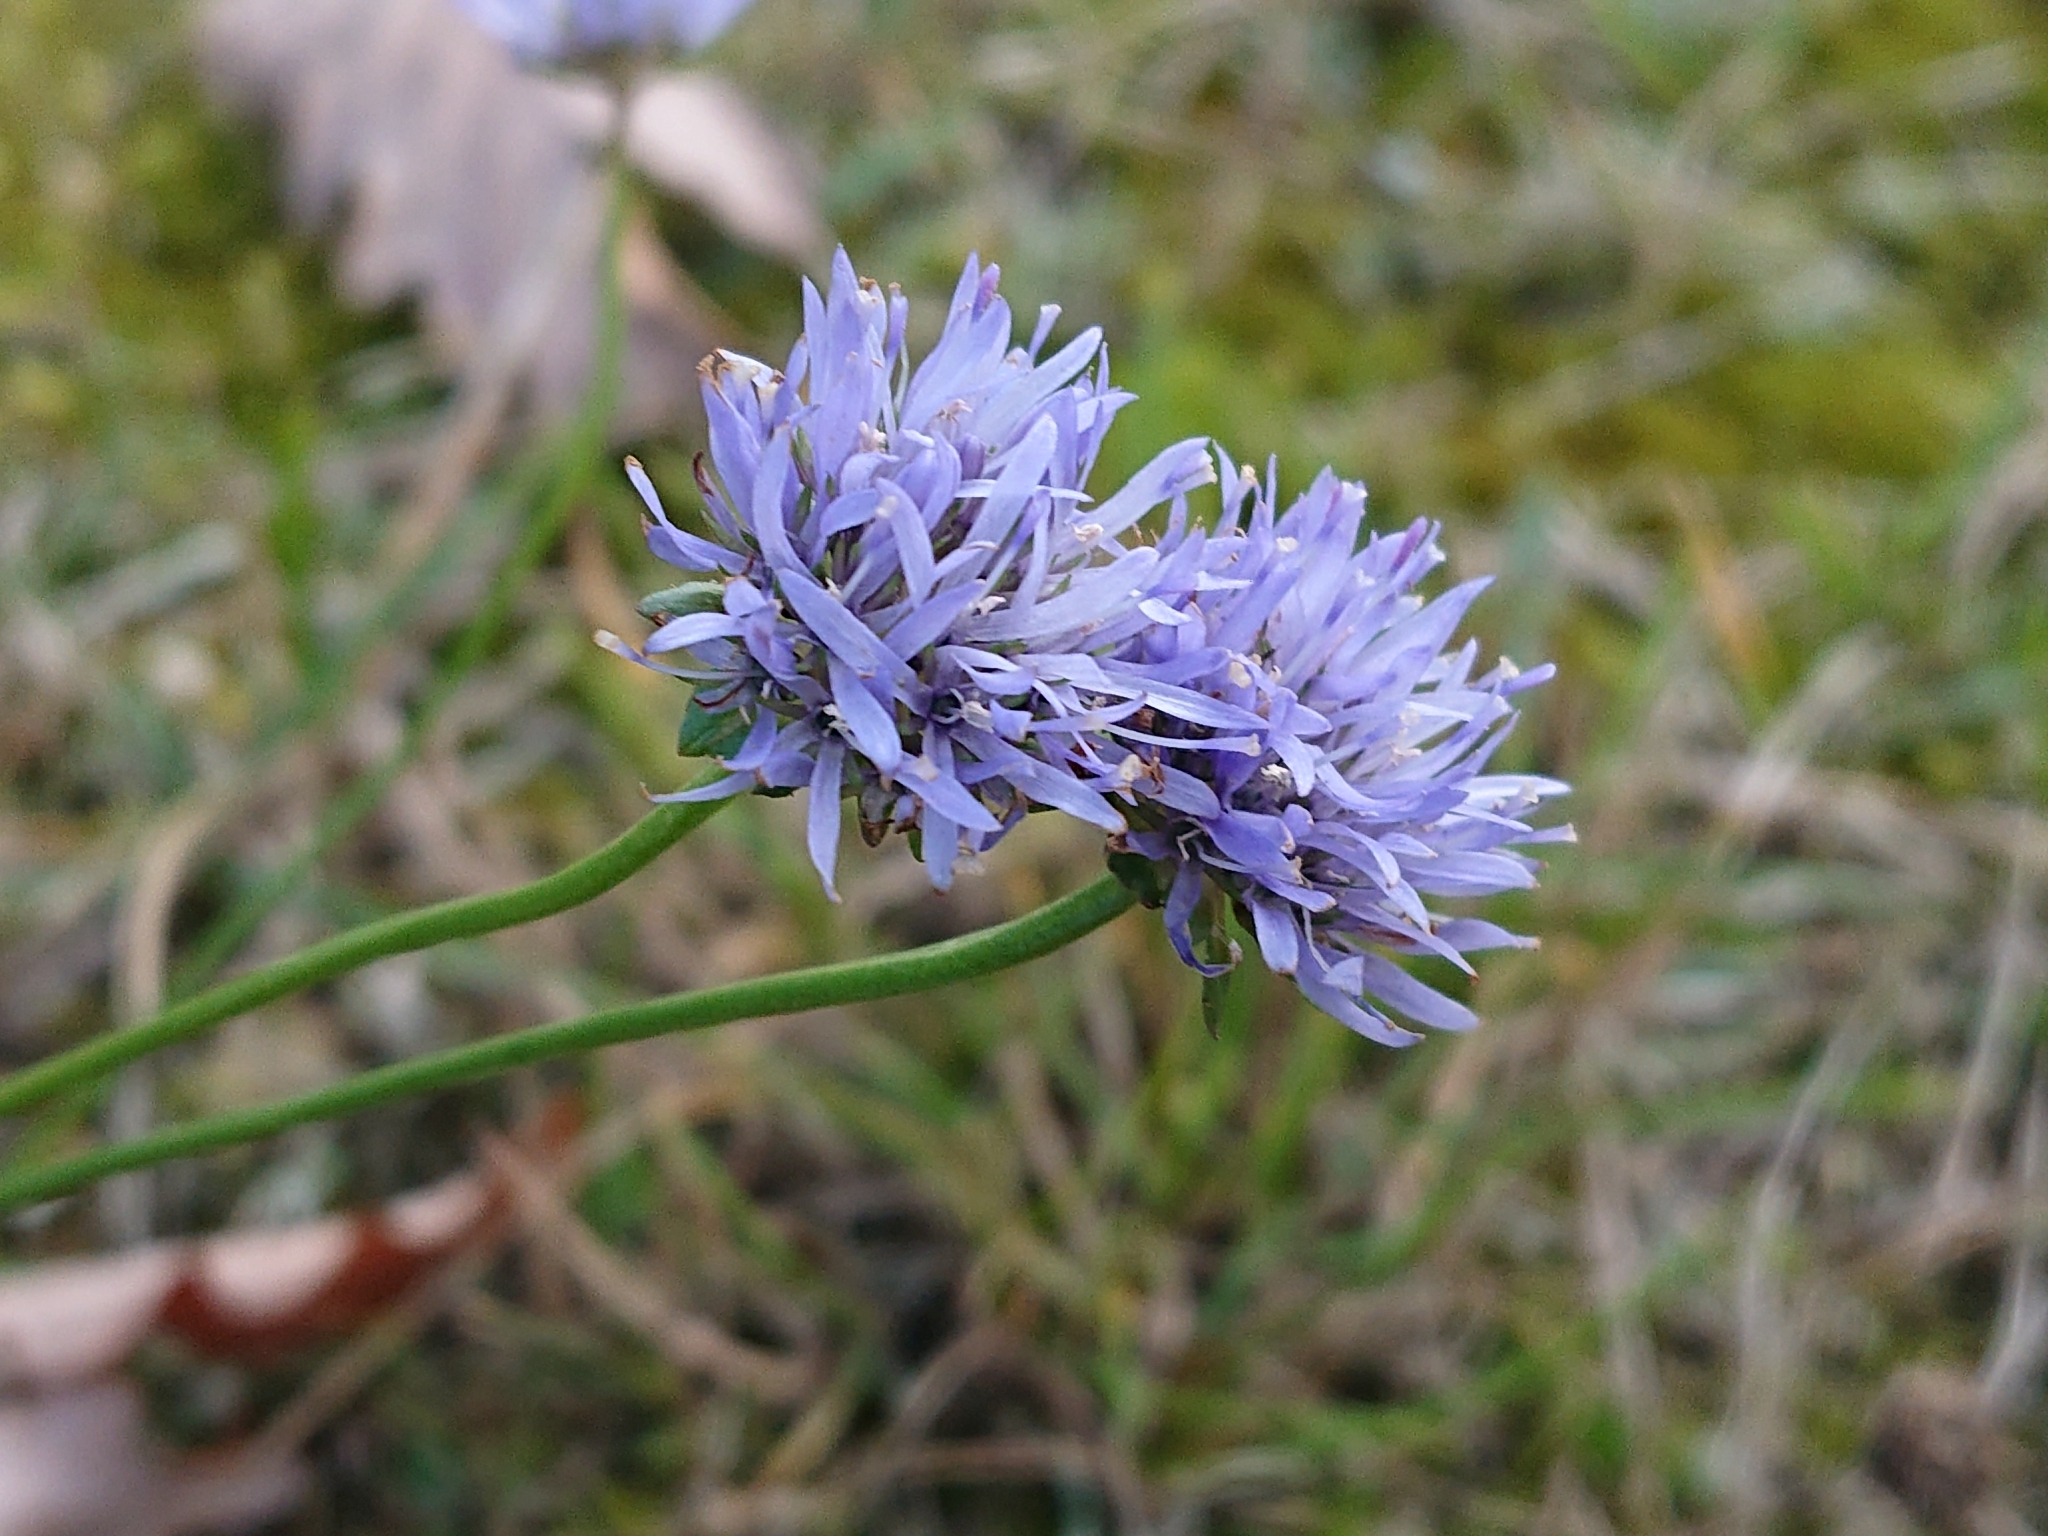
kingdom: Plantae
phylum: Tracheophyta
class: Magnoliopsida
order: Asterales
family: Campanulaceae
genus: Jasione
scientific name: Jasione montana
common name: Sheep's-bit
